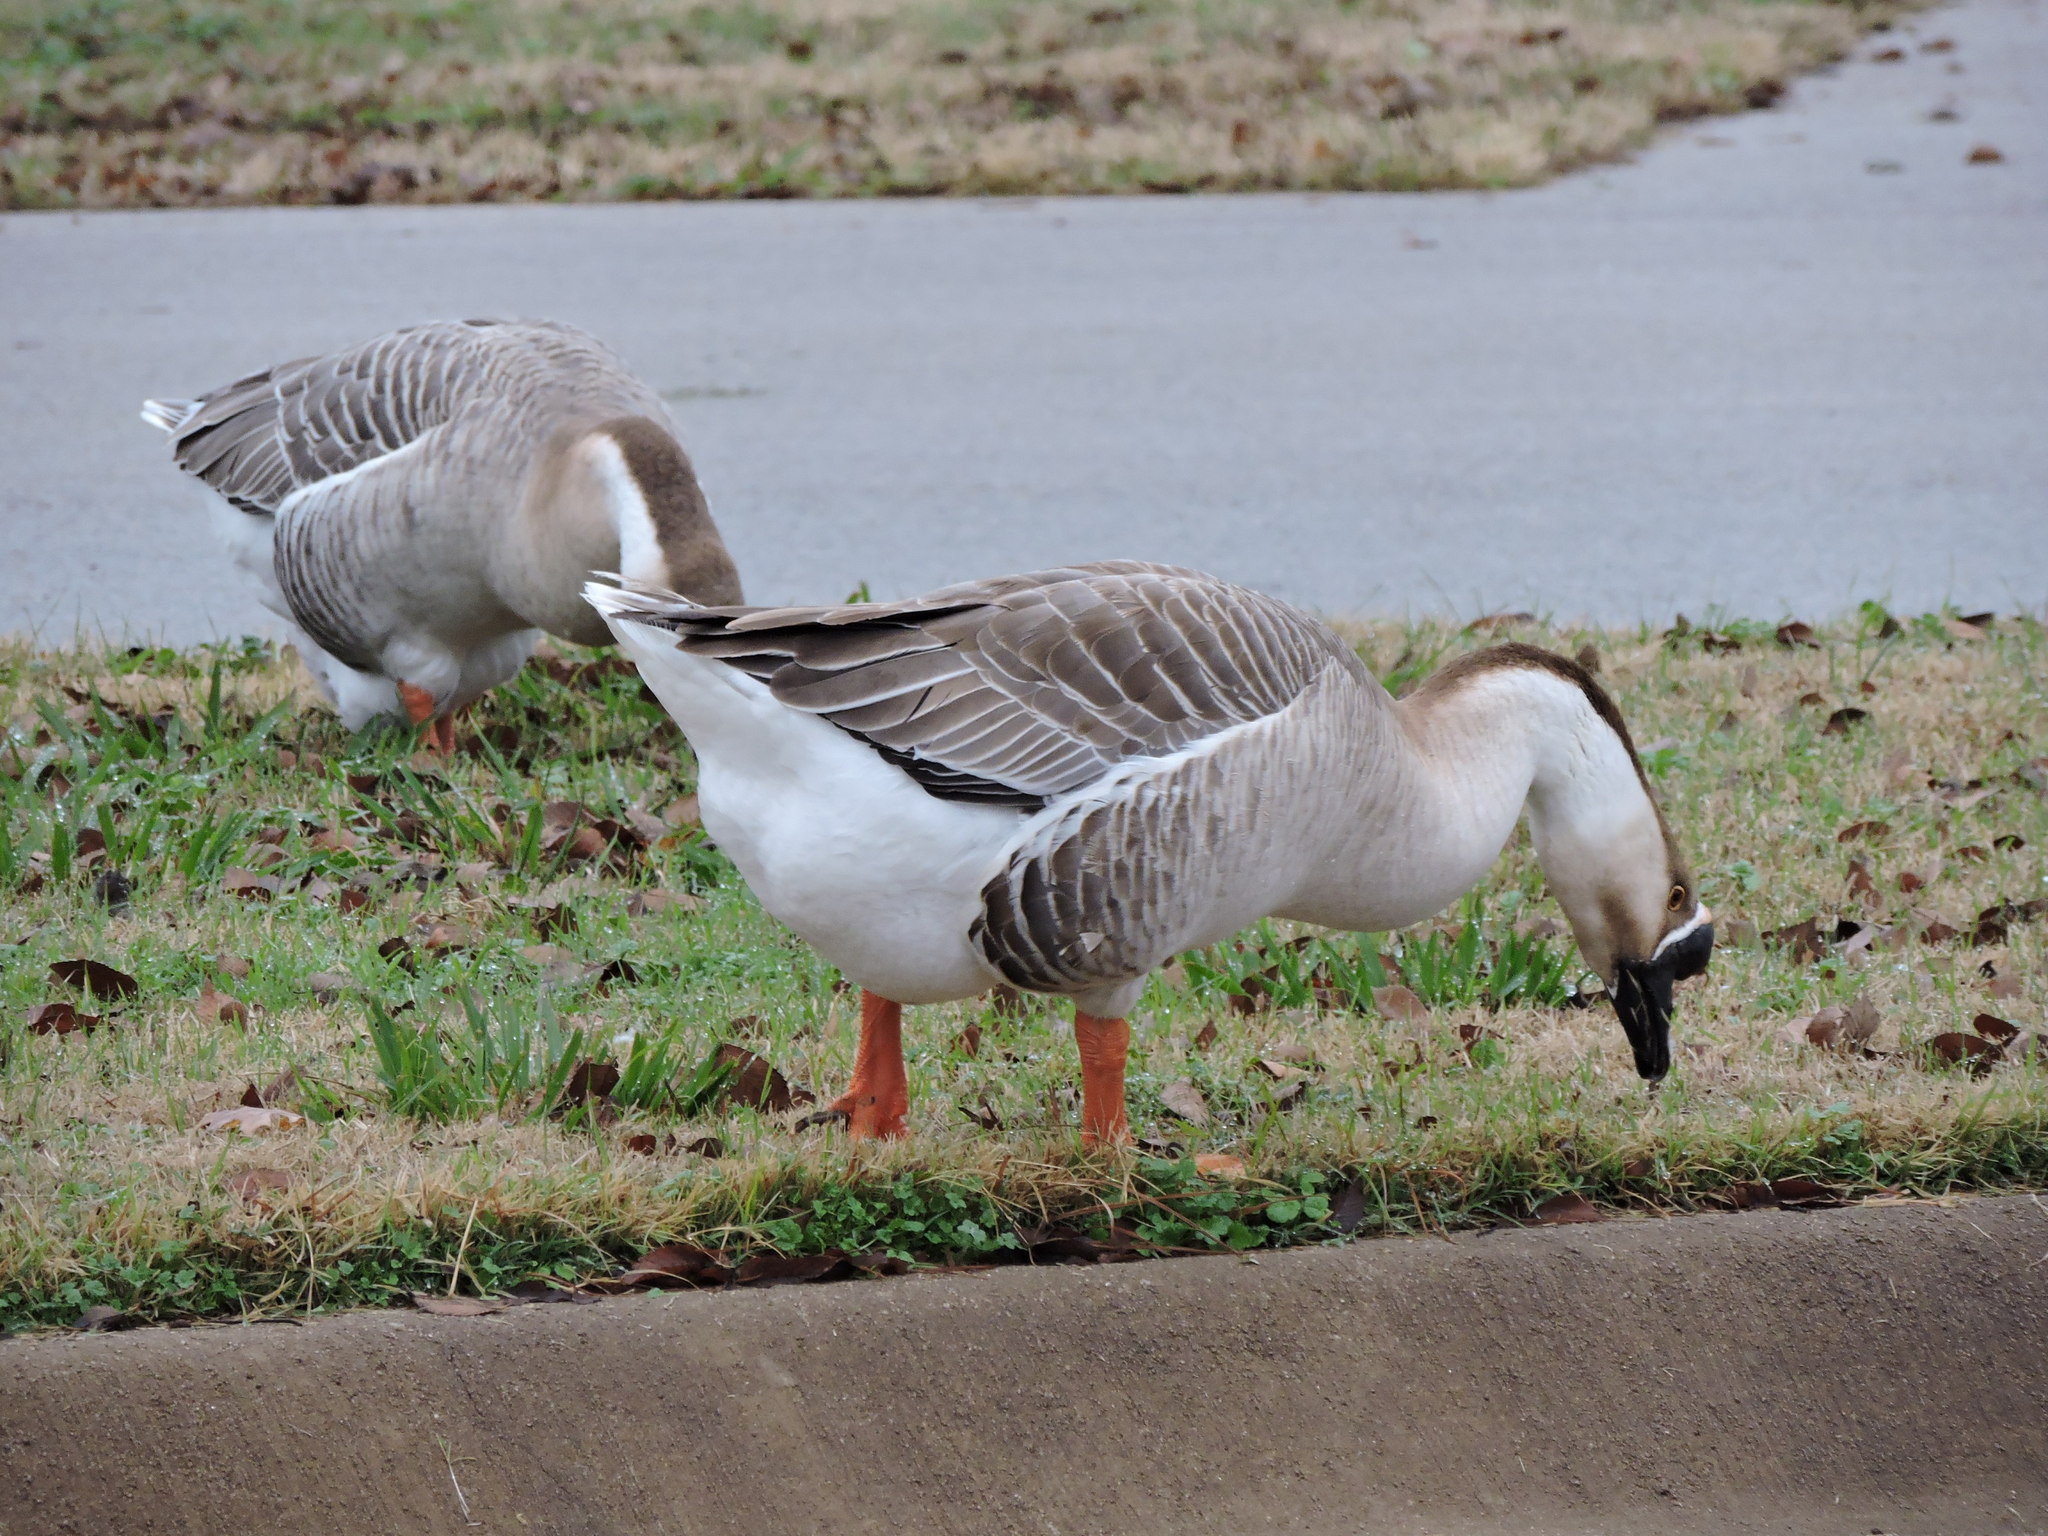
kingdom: Animalia
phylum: Chordata
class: Aves
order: Anseriformes
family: Anatidae
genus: Anser
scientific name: Anser cygnoides
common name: Swan goose
